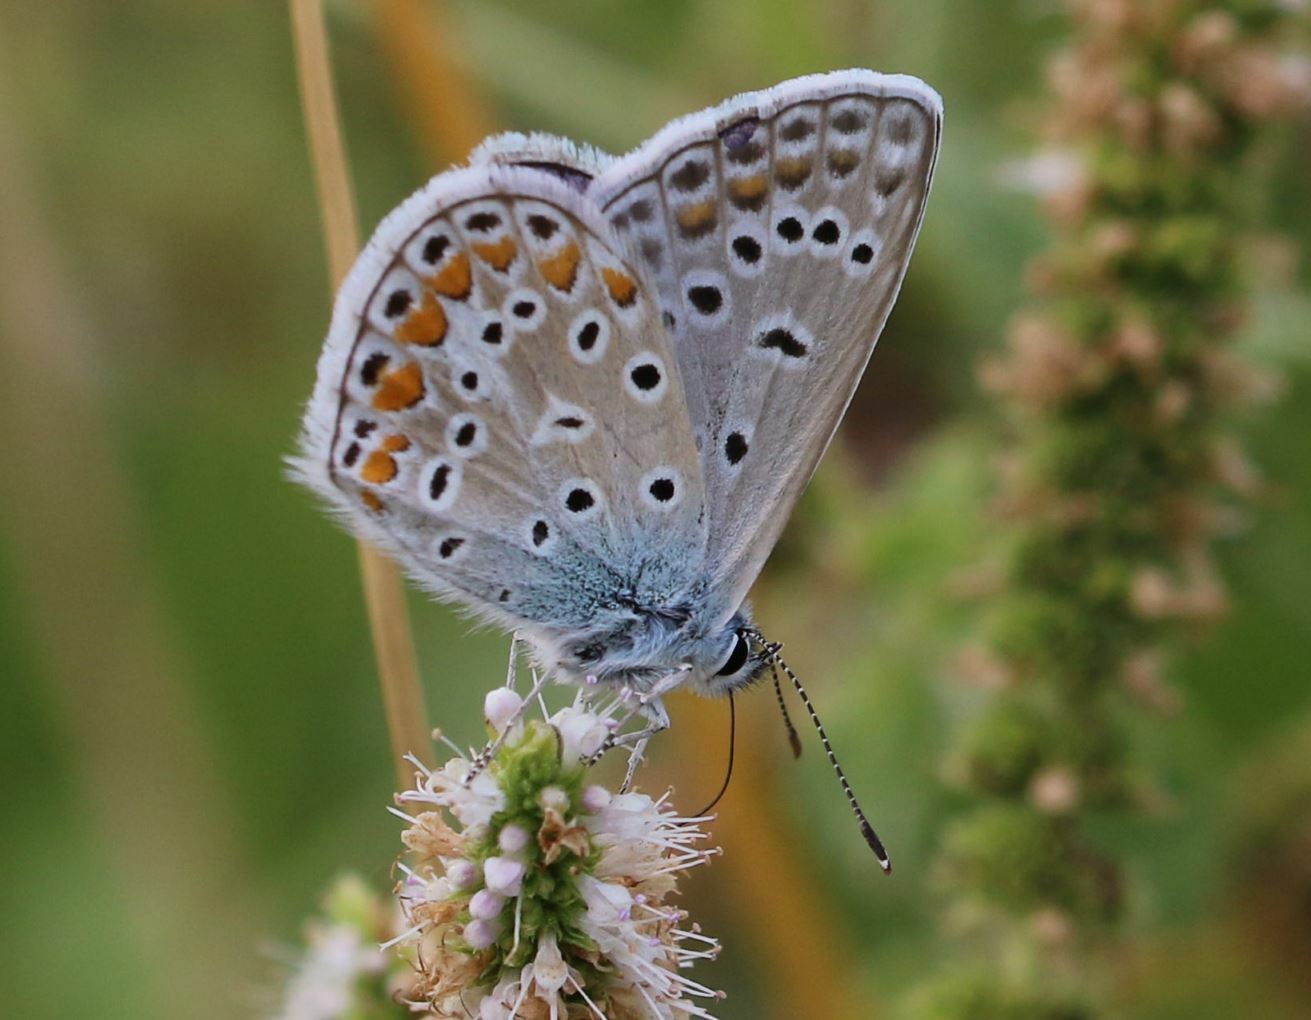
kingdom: Animalia
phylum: Arthropoda
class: Insecta
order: Lepidoptera
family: Lycaenidae
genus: Polyommatus
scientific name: Polyommatus icarus
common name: Common blue
